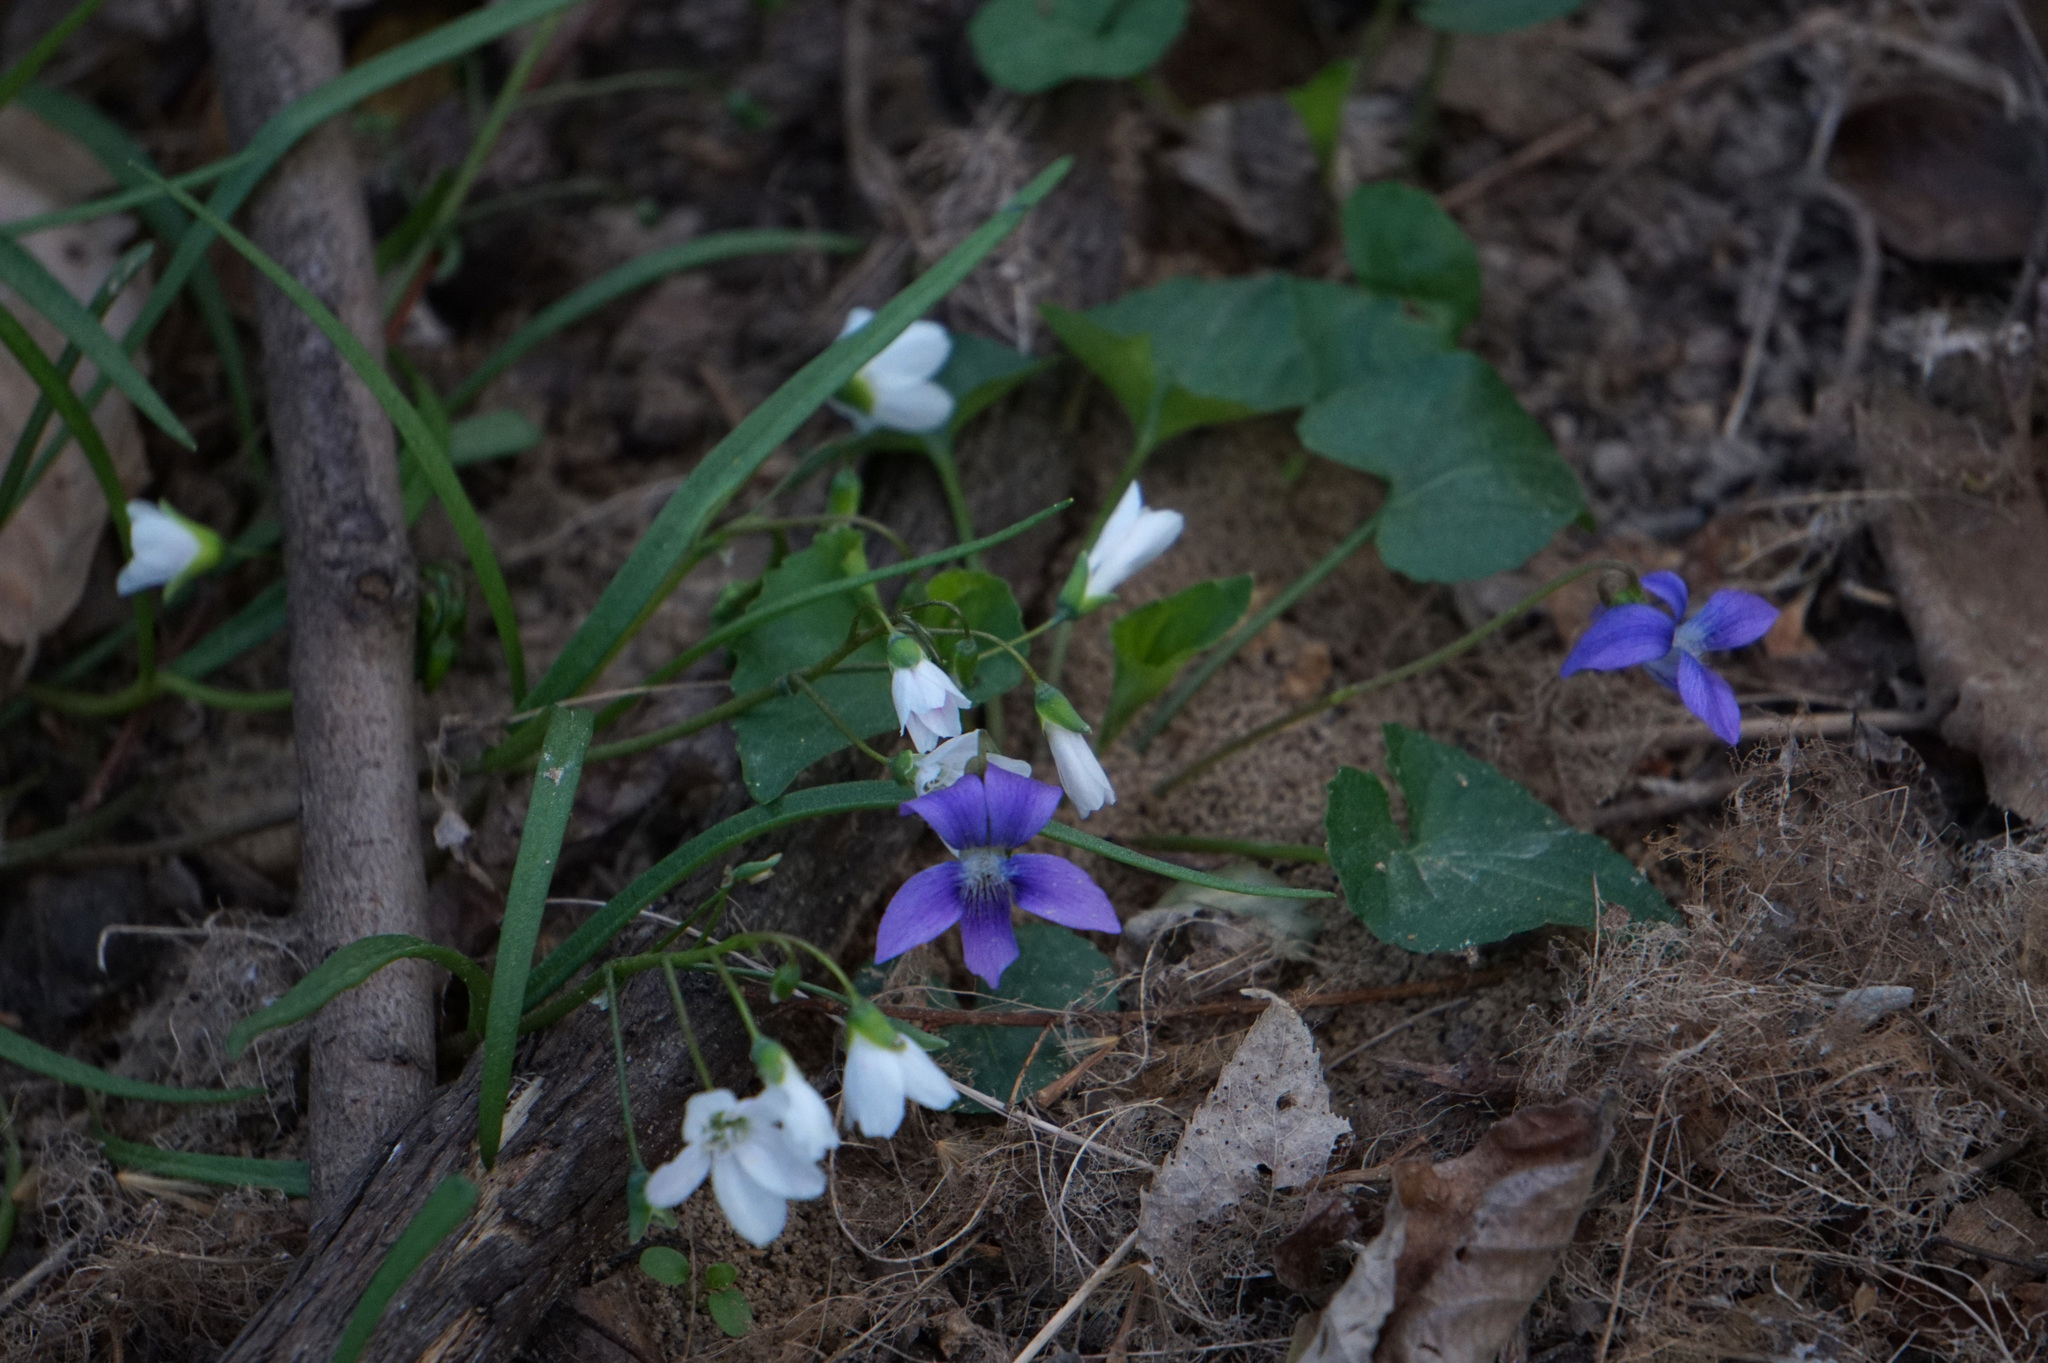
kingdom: Plantae
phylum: Tracheophyta
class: Magnoliopsida
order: Malpighiales
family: Violaceae
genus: Viola
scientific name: Viola sororia
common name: Dooryard violet
